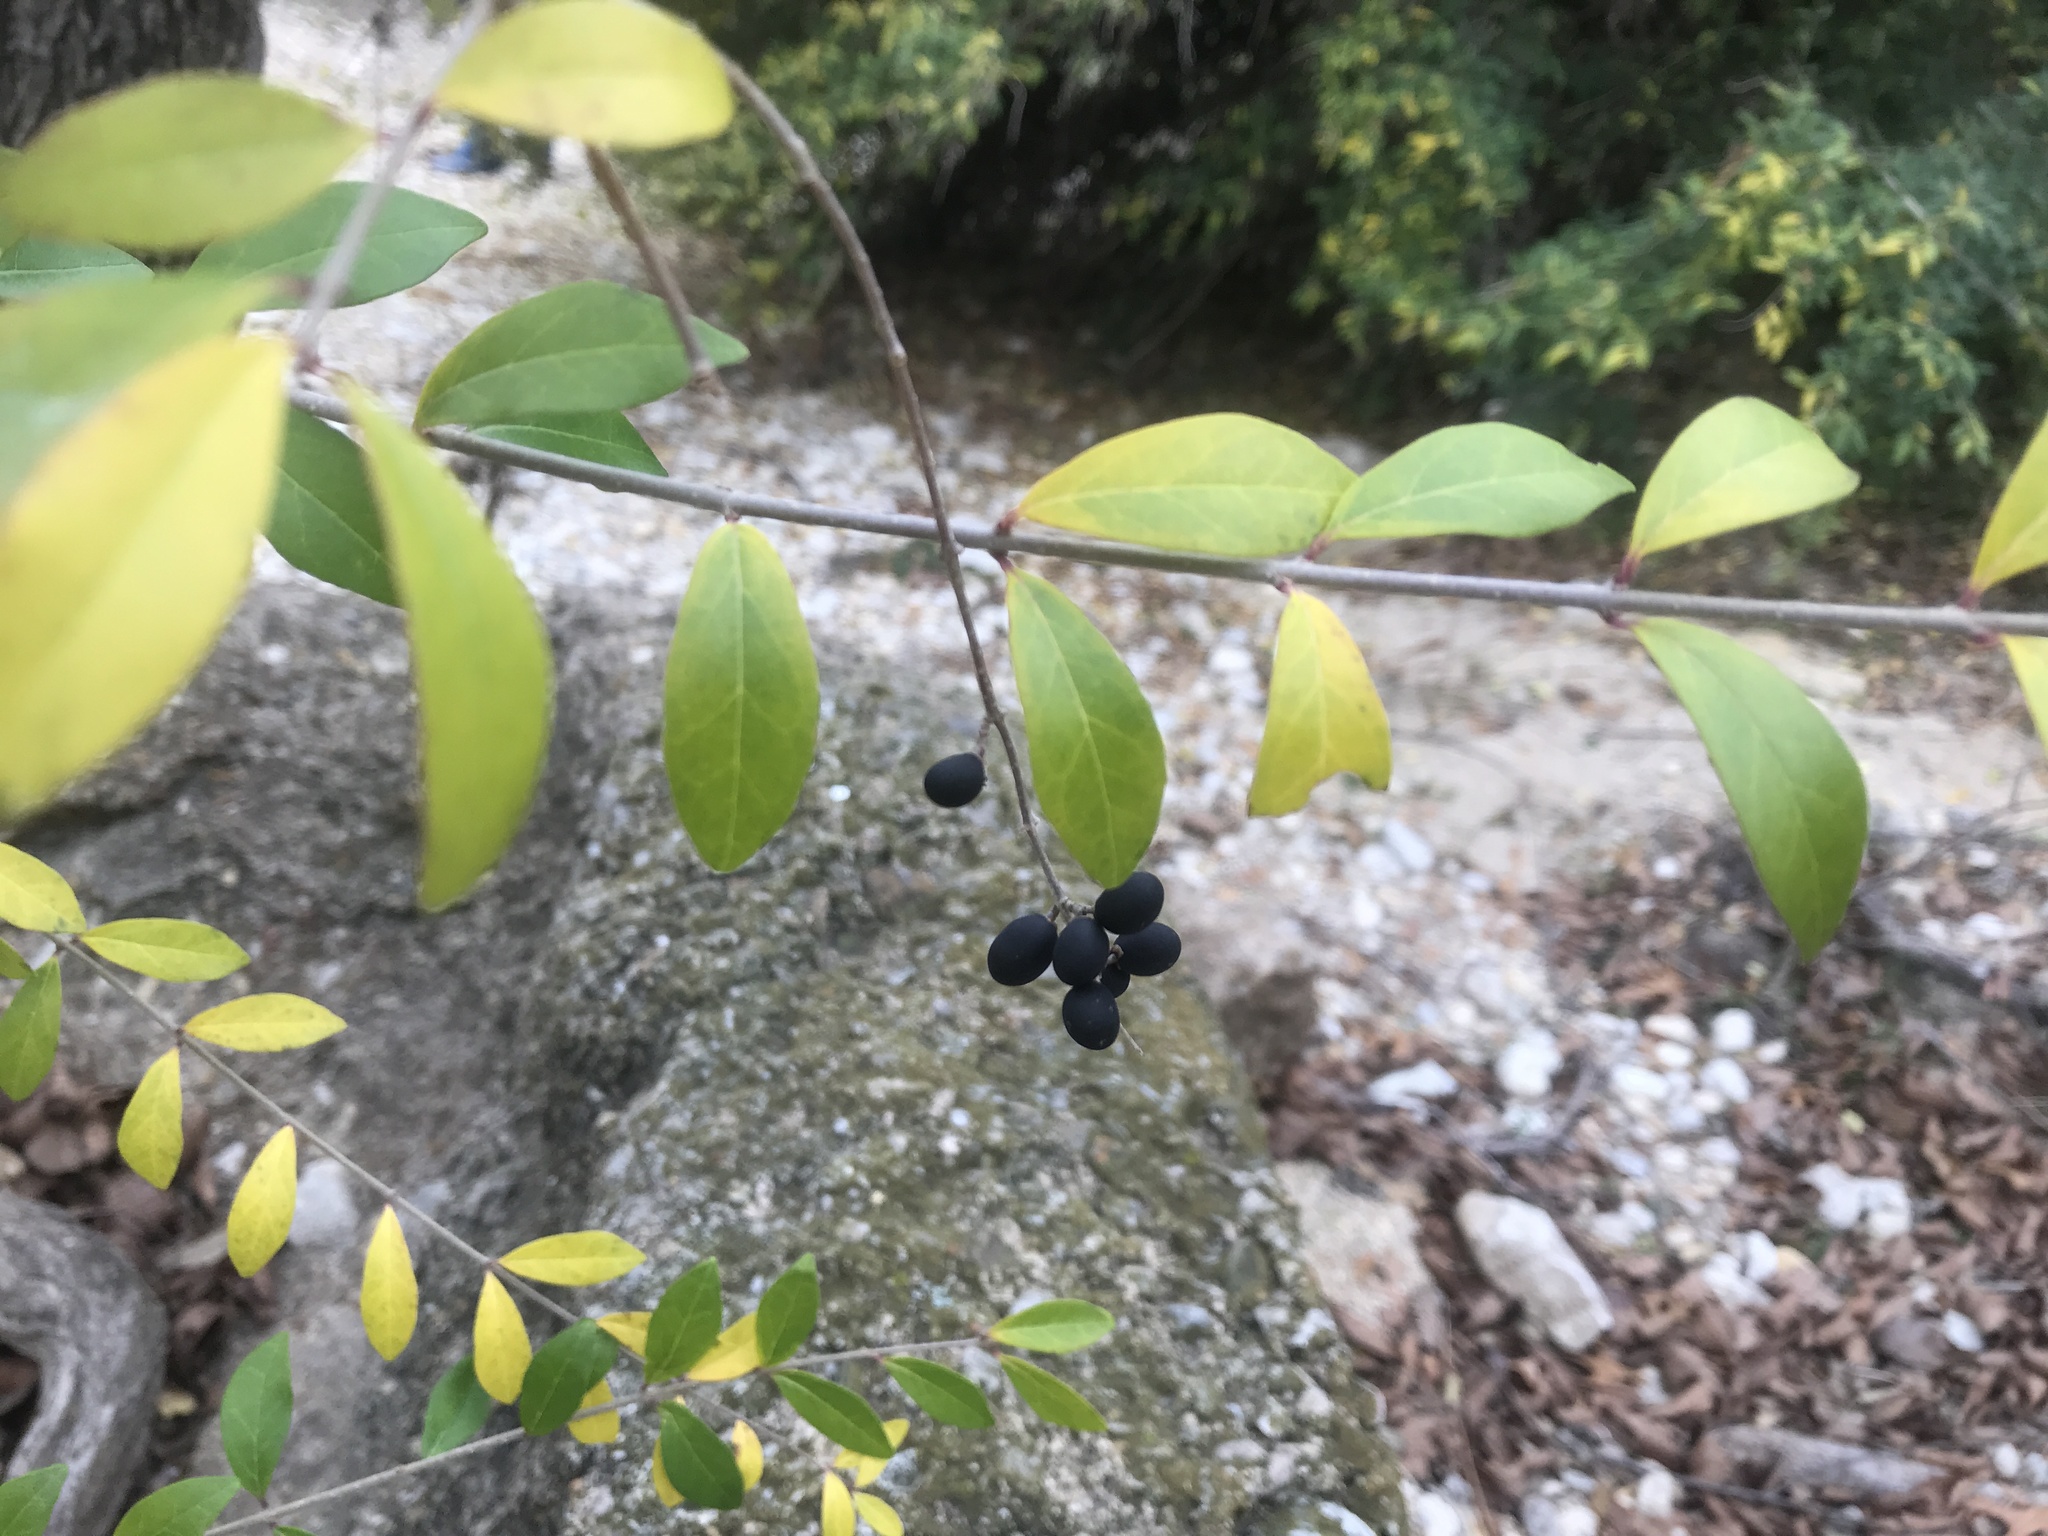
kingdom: Plantae
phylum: Tracheophyta
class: Magnoliopsida
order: Lamiales
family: Oleaceae
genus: Ligustrum
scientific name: Ligustrum quihoui
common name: Waxyleaf privet
